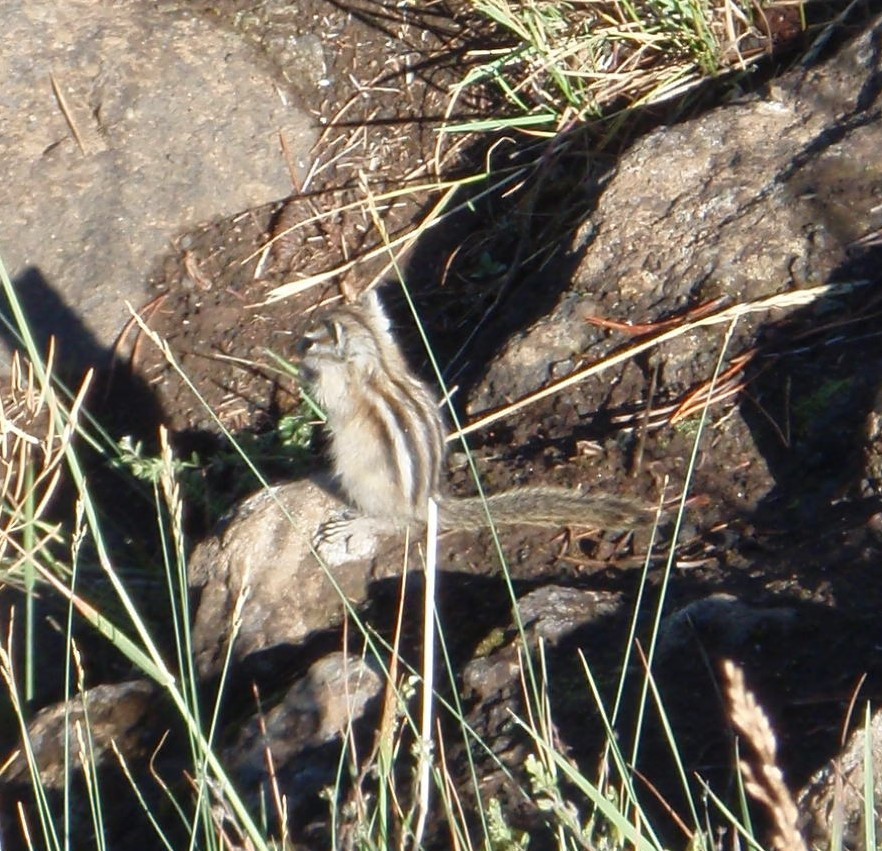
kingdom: Animalia
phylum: Chordata
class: Mammalia
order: Rodentia
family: Sciuridae
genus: Tamias
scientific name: Tamias minimus
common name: Least chipmunk
